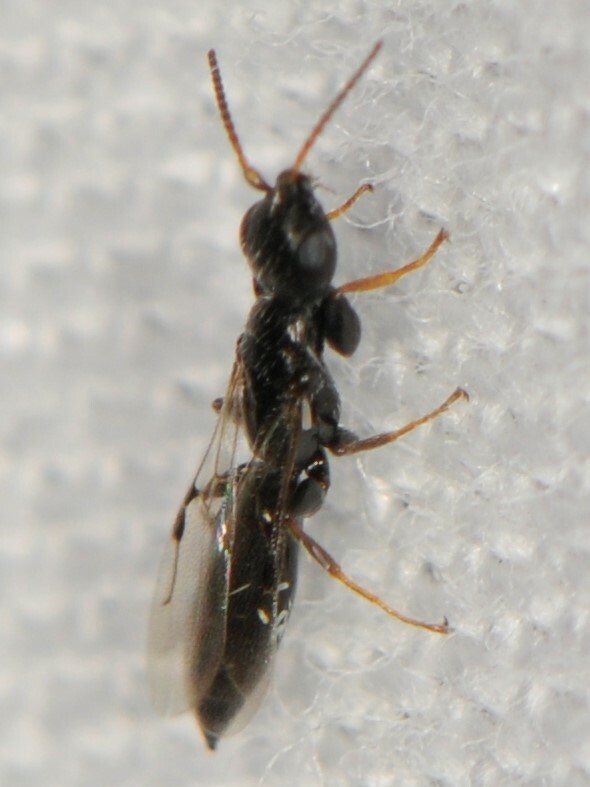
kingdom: Animalia
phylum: Arthropoda
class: Insecta
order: Hymenoptera
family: Bethylidae
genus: Goniozus
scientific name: Goniozus
